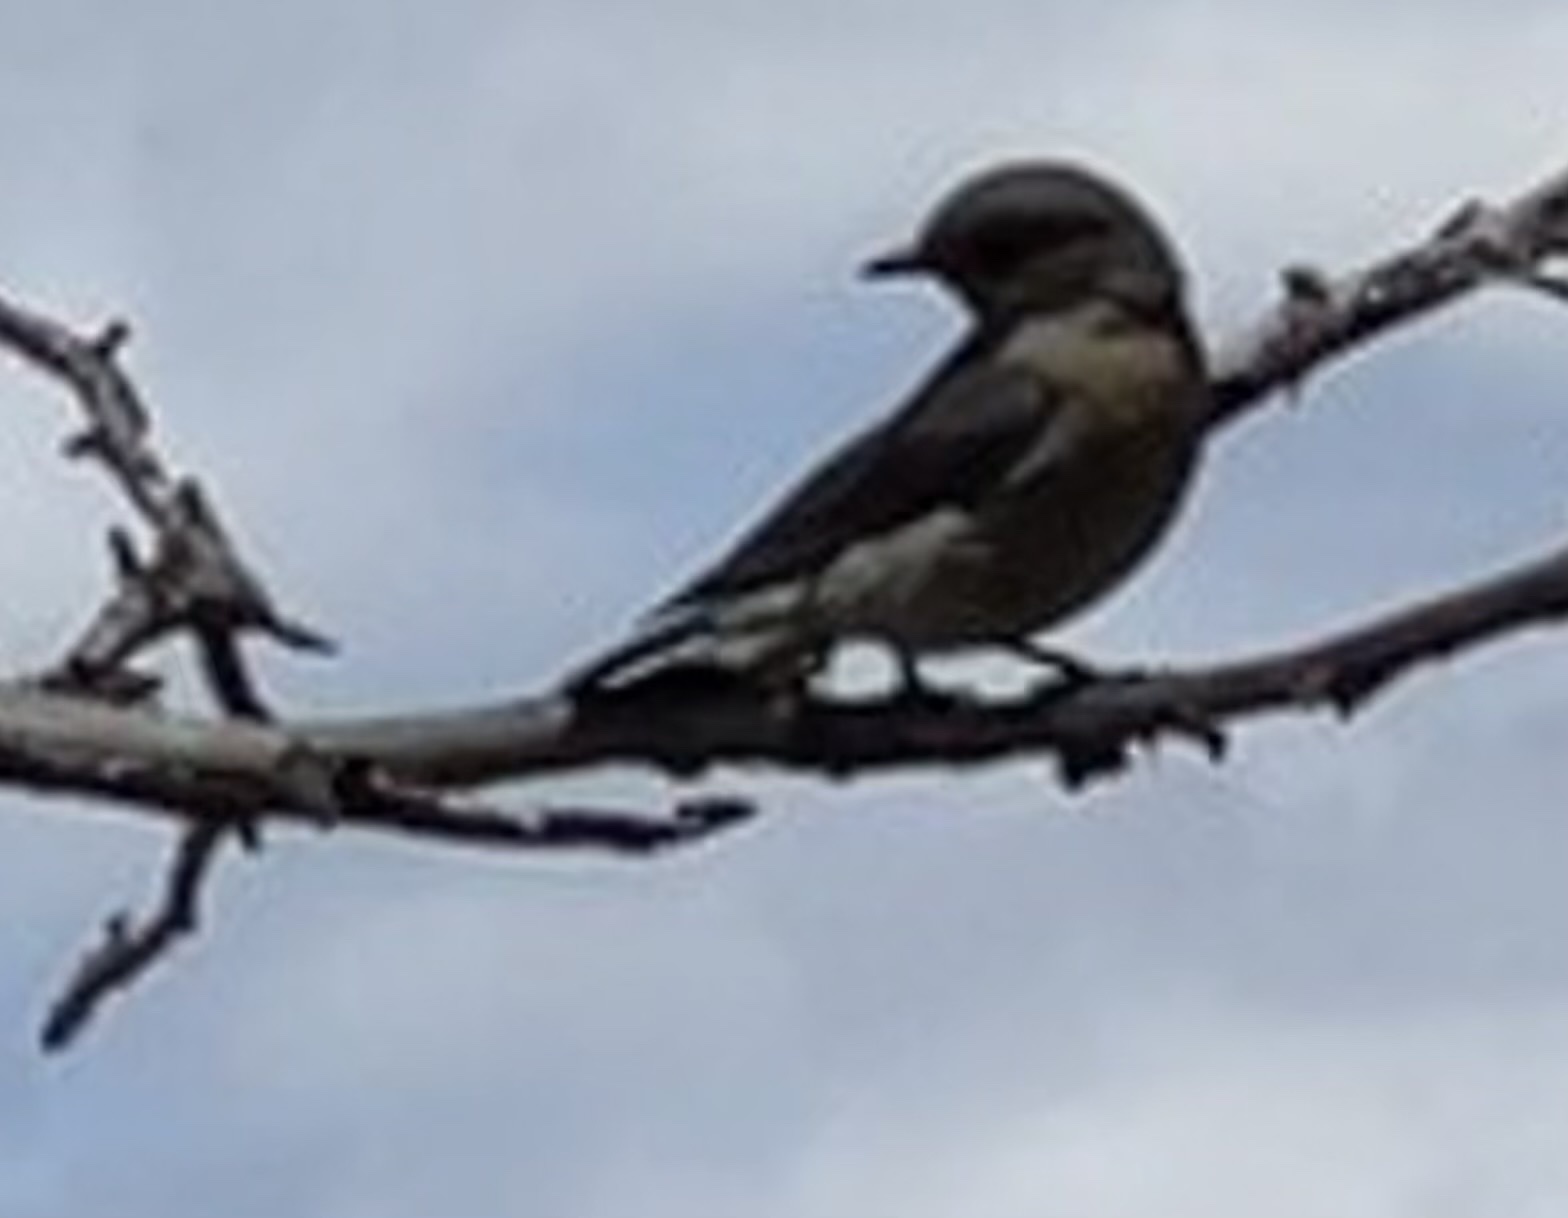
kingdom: Animalia
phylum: Chordata
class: Aves
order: Passeriformes
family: Turdidae
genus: Sialia
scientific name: Sialia mexicana
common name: Western bluebird
